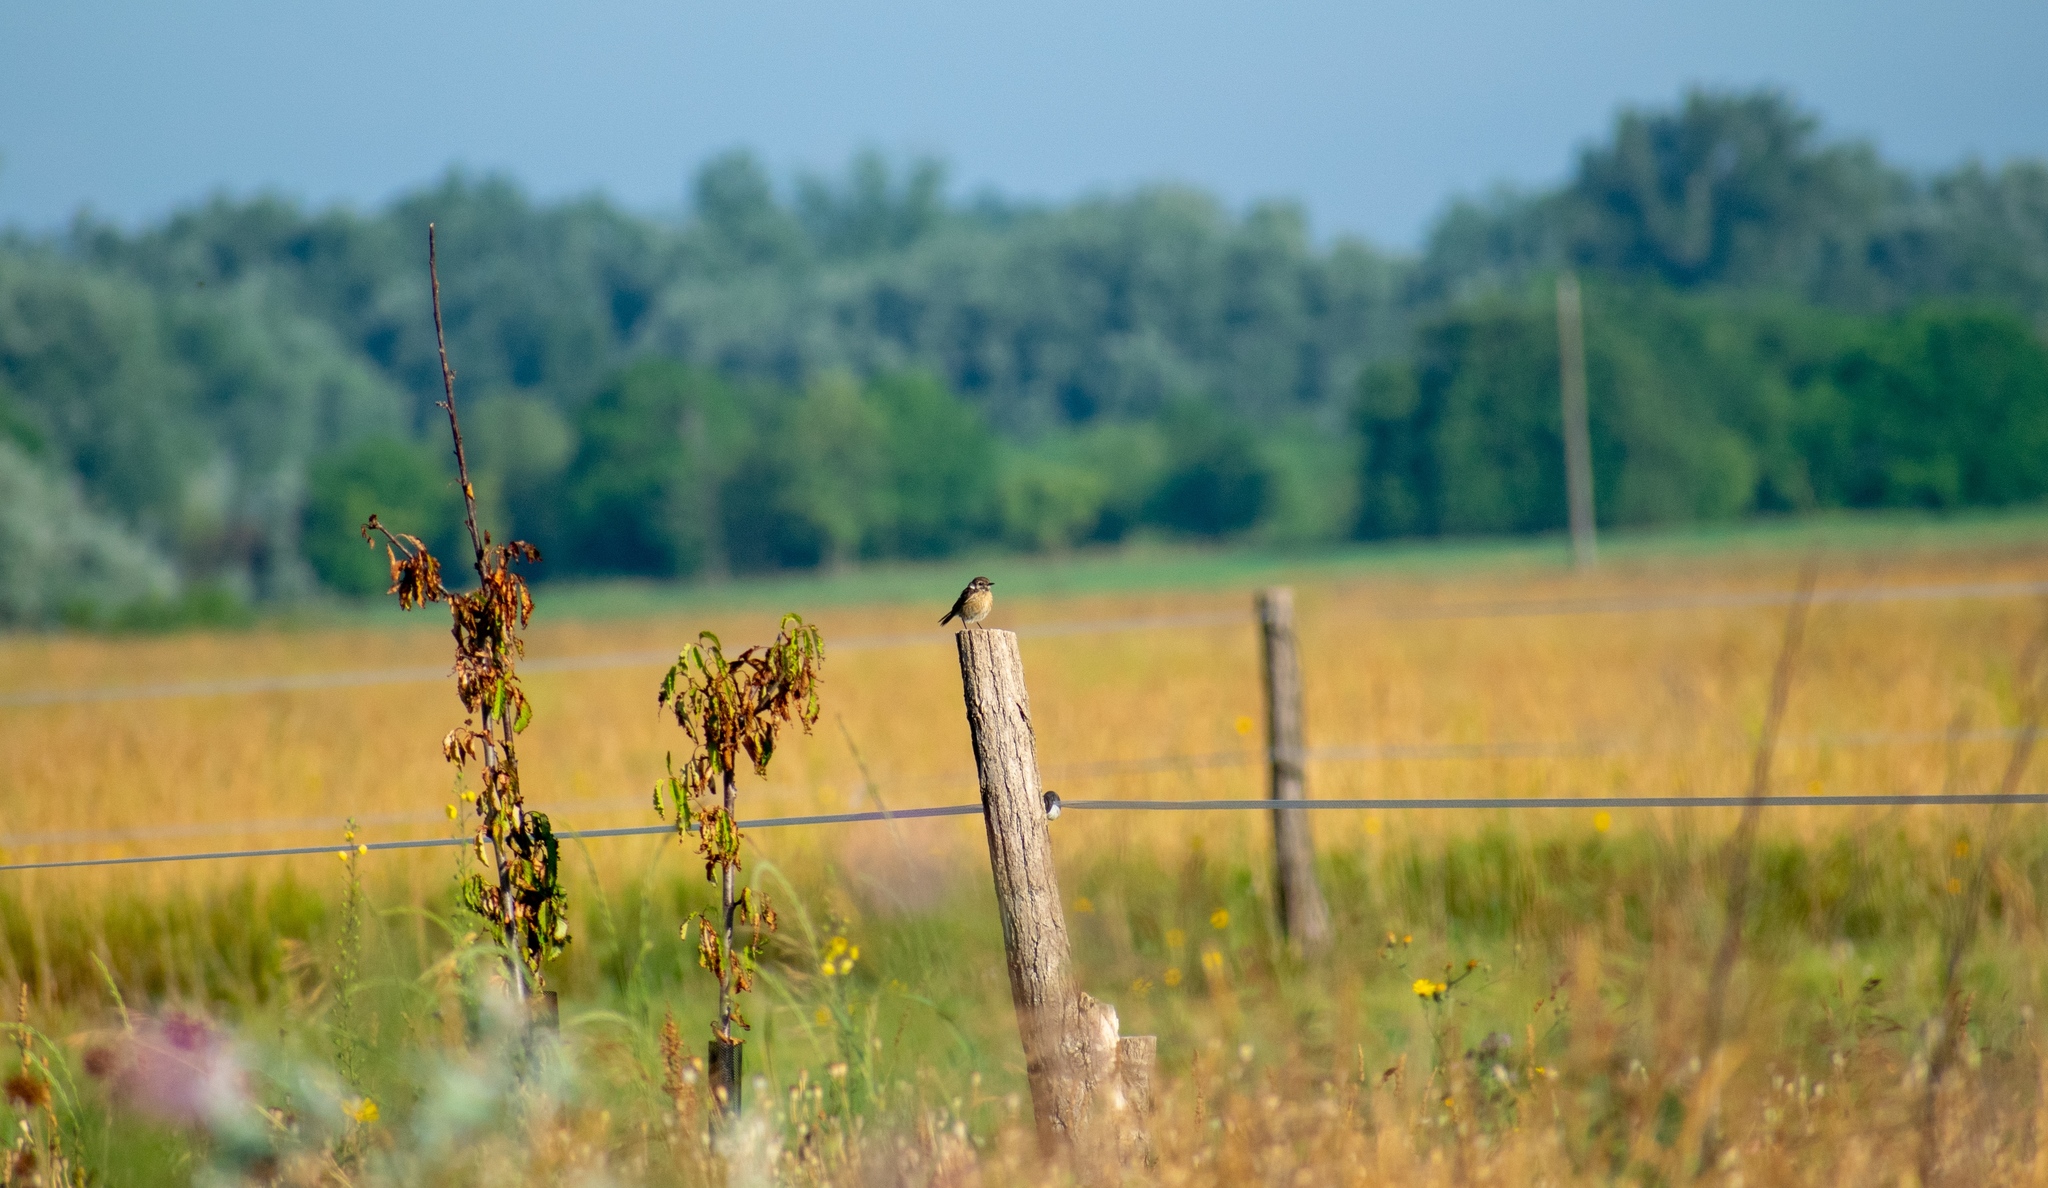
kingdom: Animalia
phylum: Chordata
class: Aves
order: Passeriformes
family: Muscicapidae
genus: Saxicola
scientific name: Saxicola rubicola
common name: European stonechat
